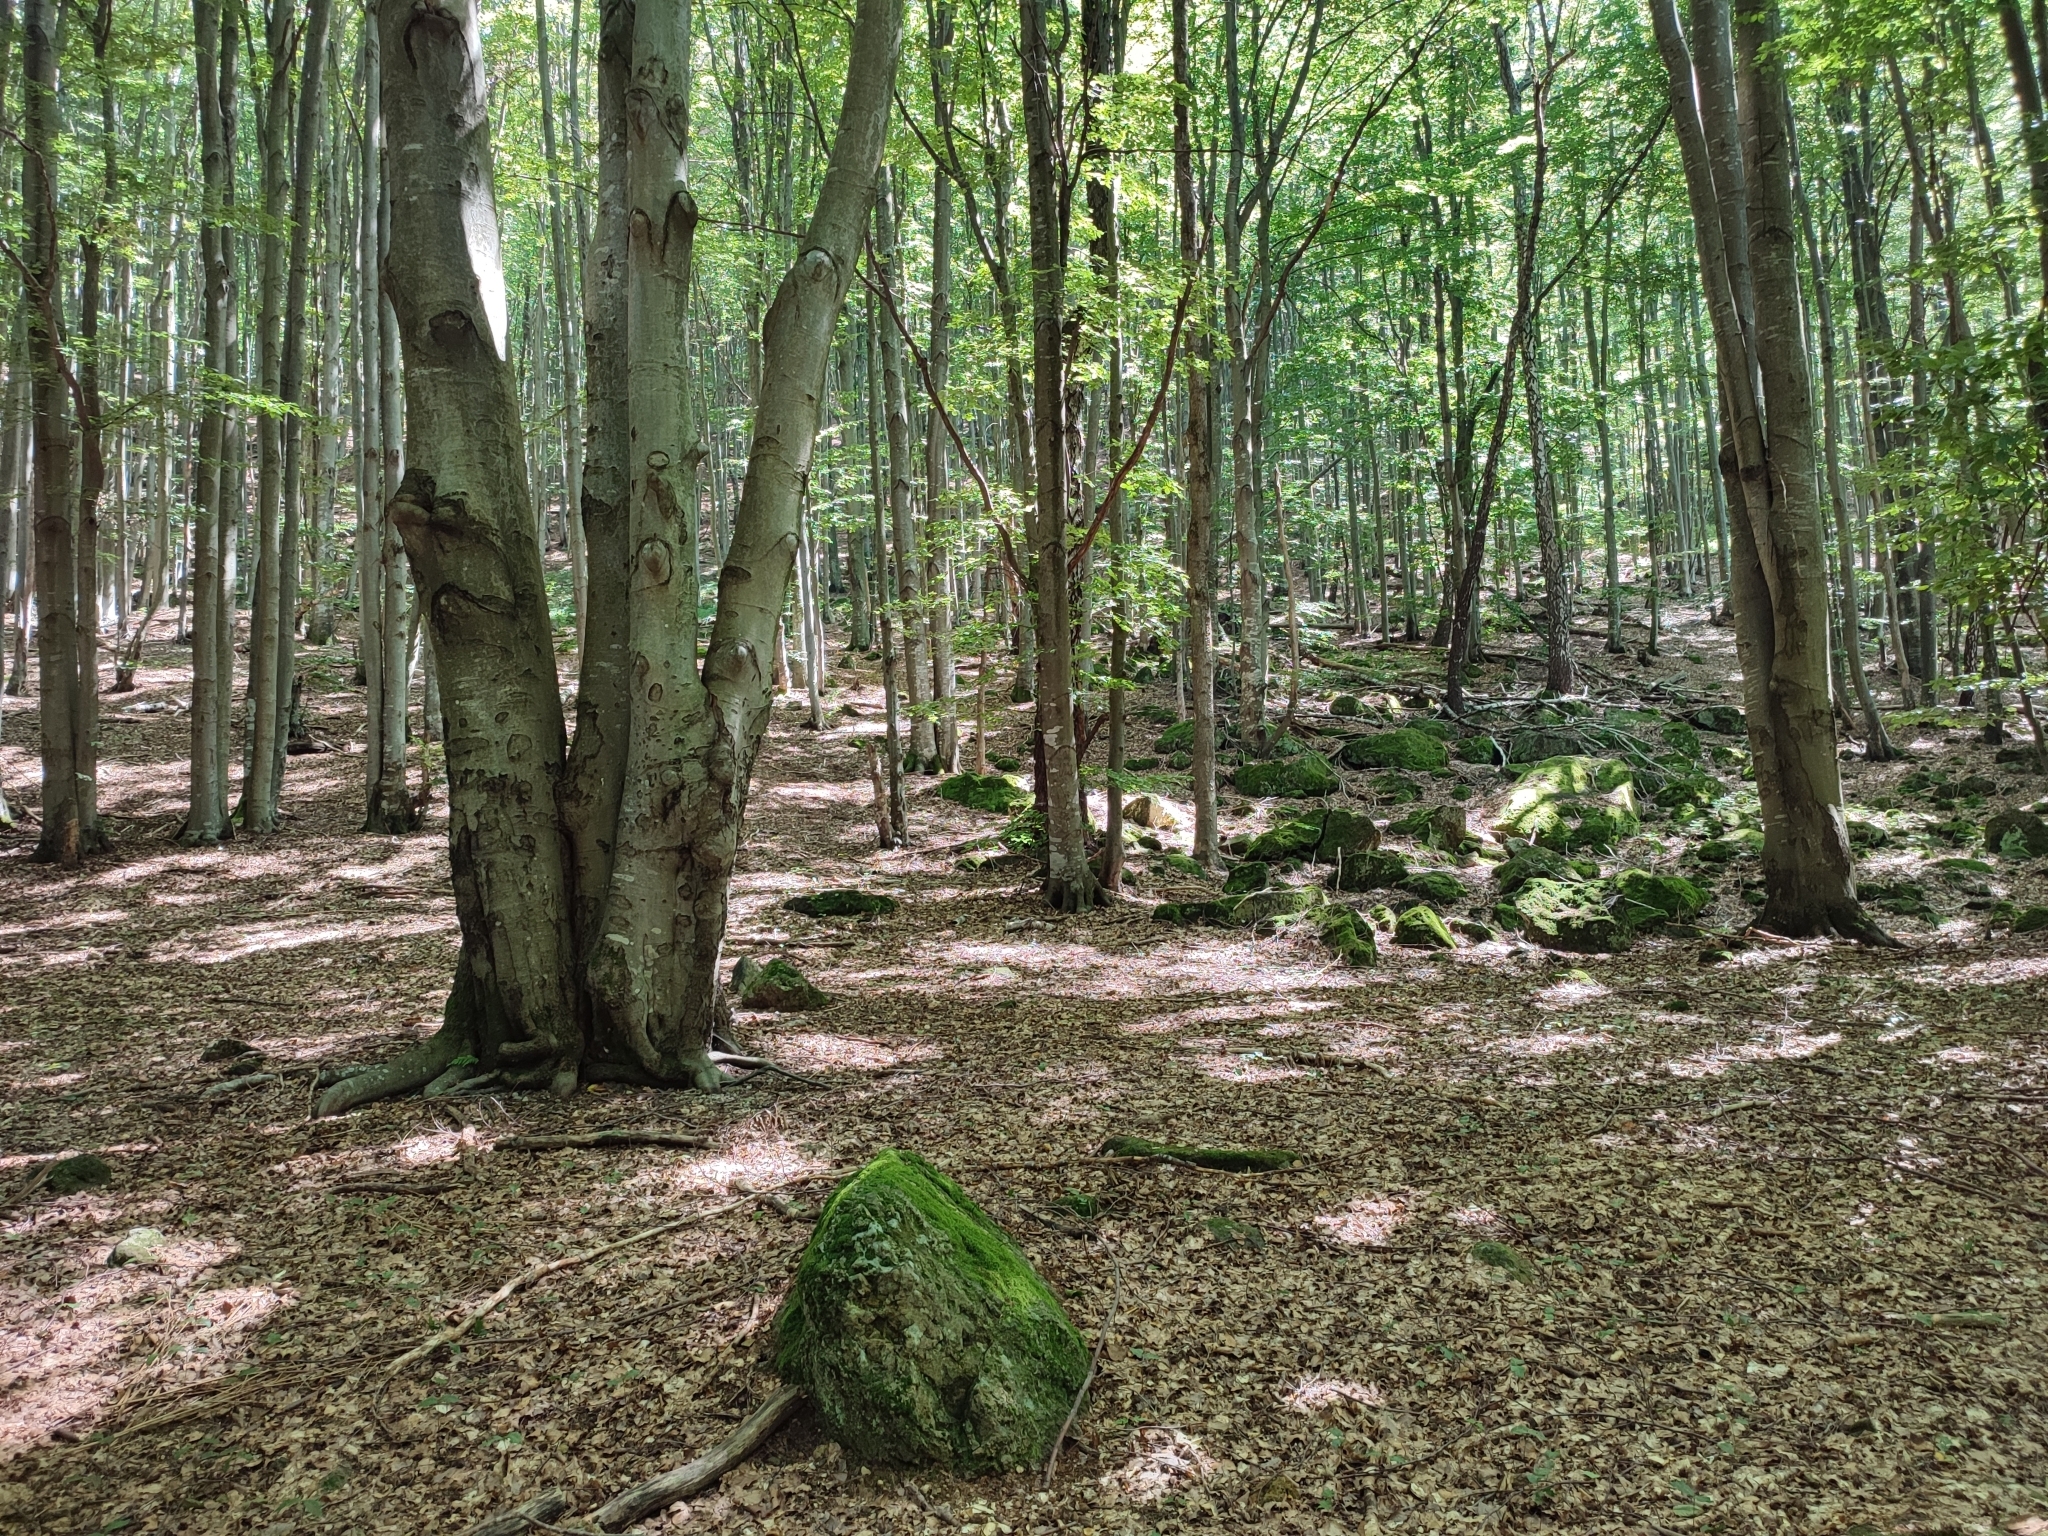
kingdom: Plantae
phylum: Tracheophyta
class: Magnoliopsida
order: Fagales
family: Fagaceae
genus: Fagus
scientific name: Fagus sylvatica
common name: Beech
